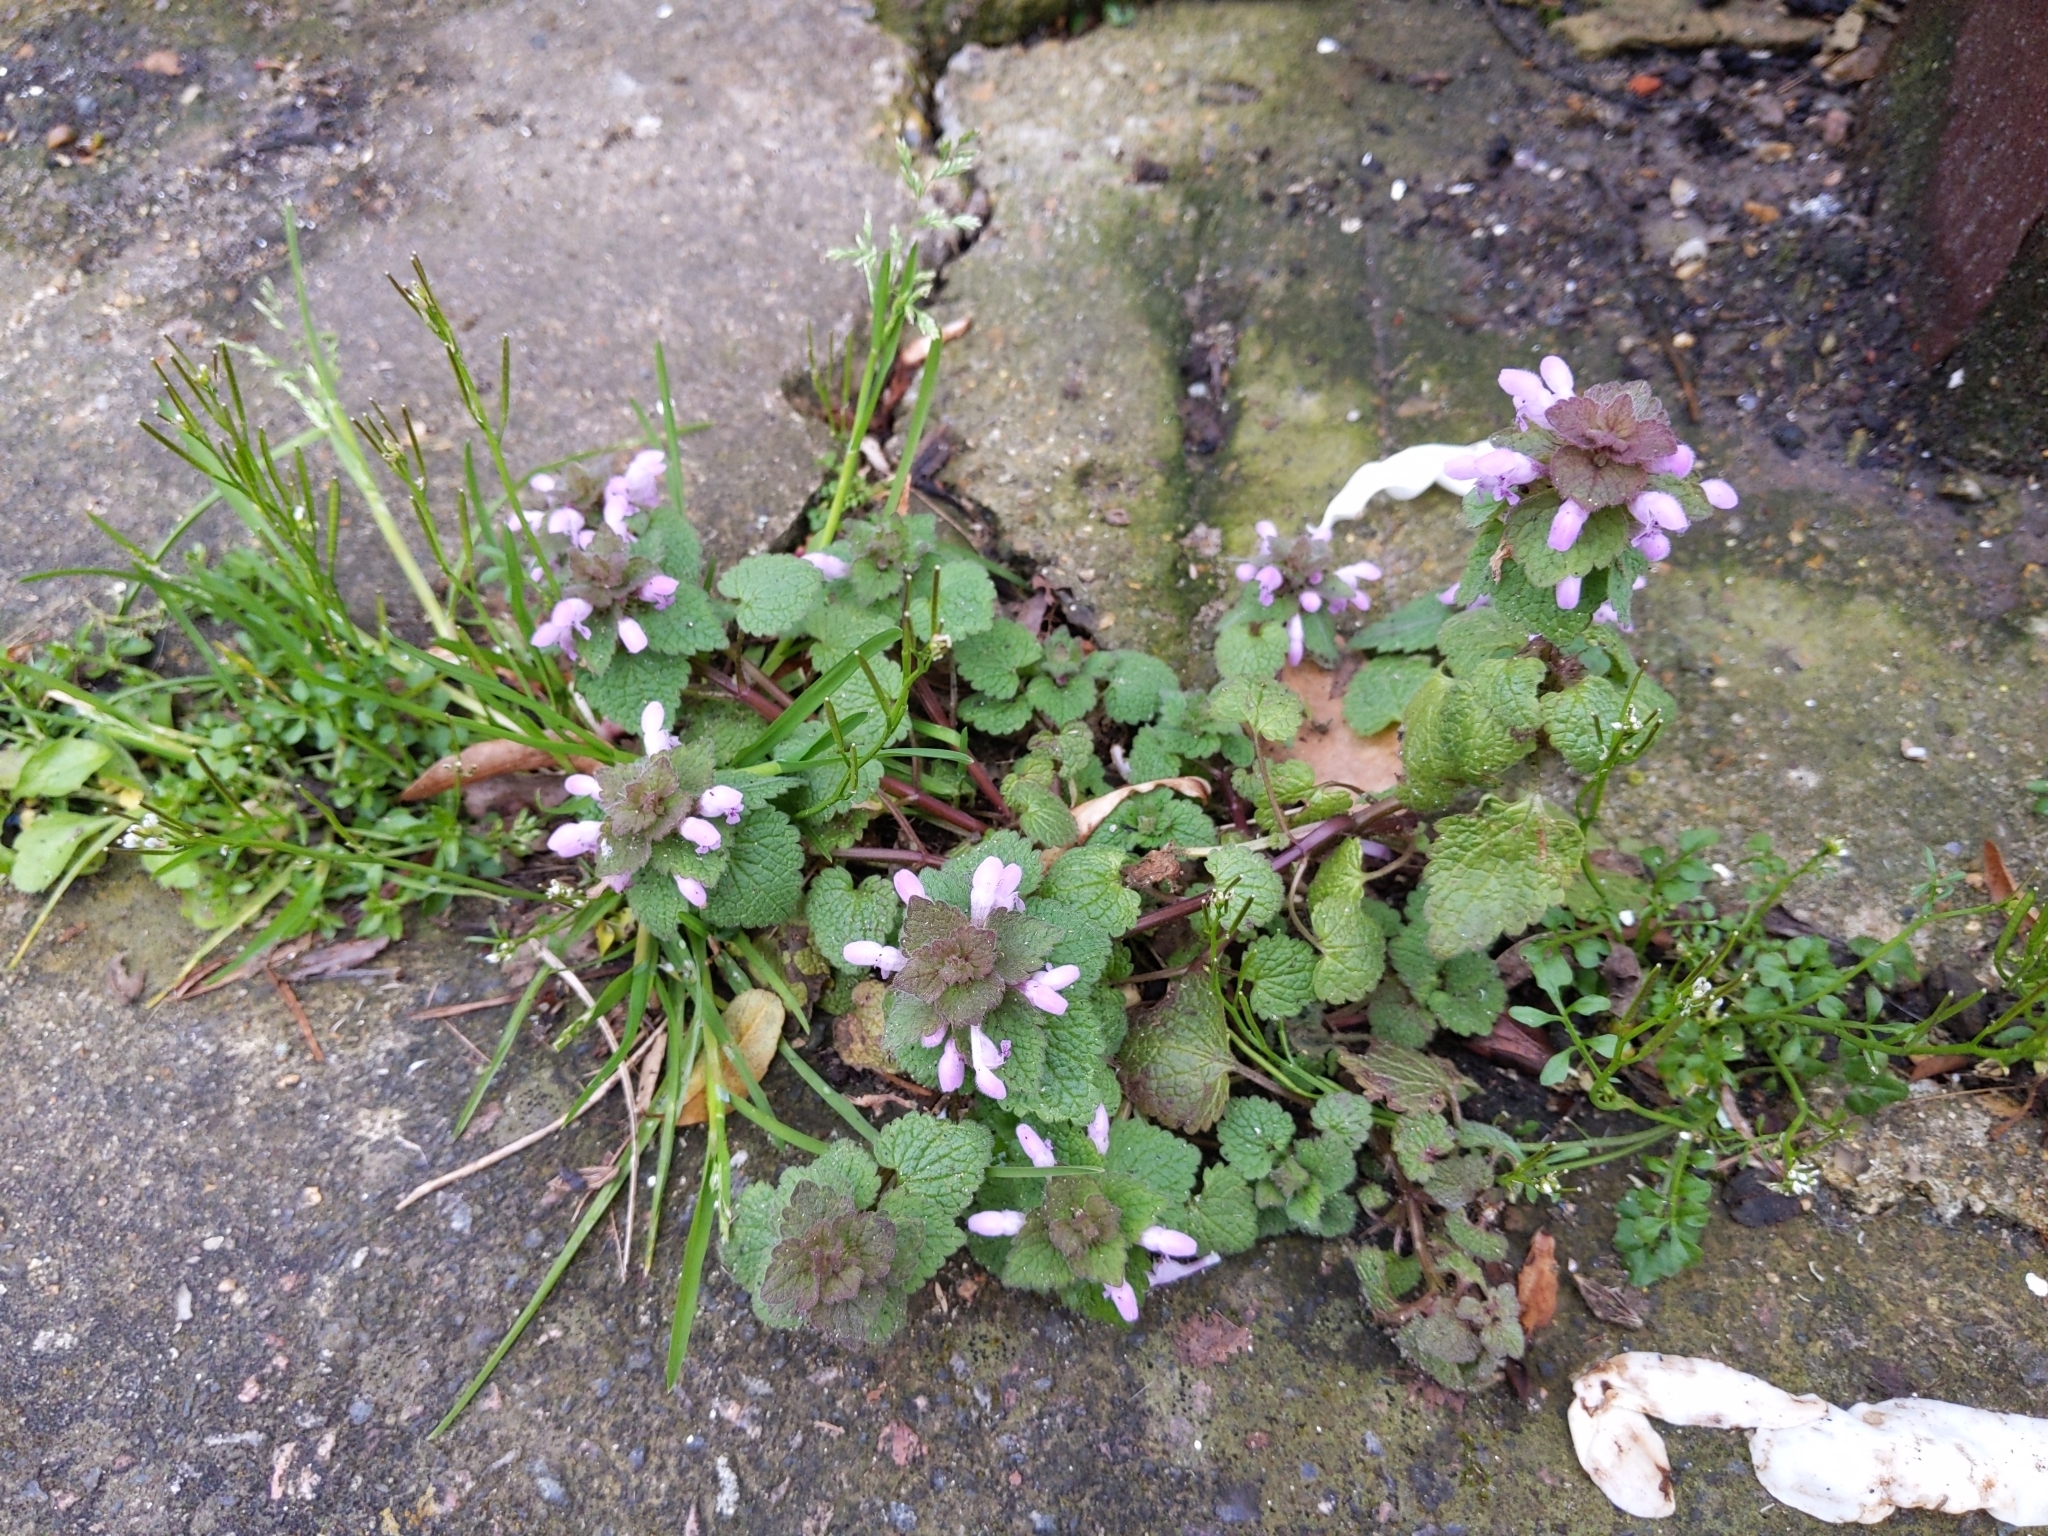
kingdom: Plantae
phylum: Tracheophyta
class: Magnoliopsida
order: Lamiales
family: Lamiaceae
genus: Lamium
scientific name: Lamium purpureum
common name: Red dead-nettle
